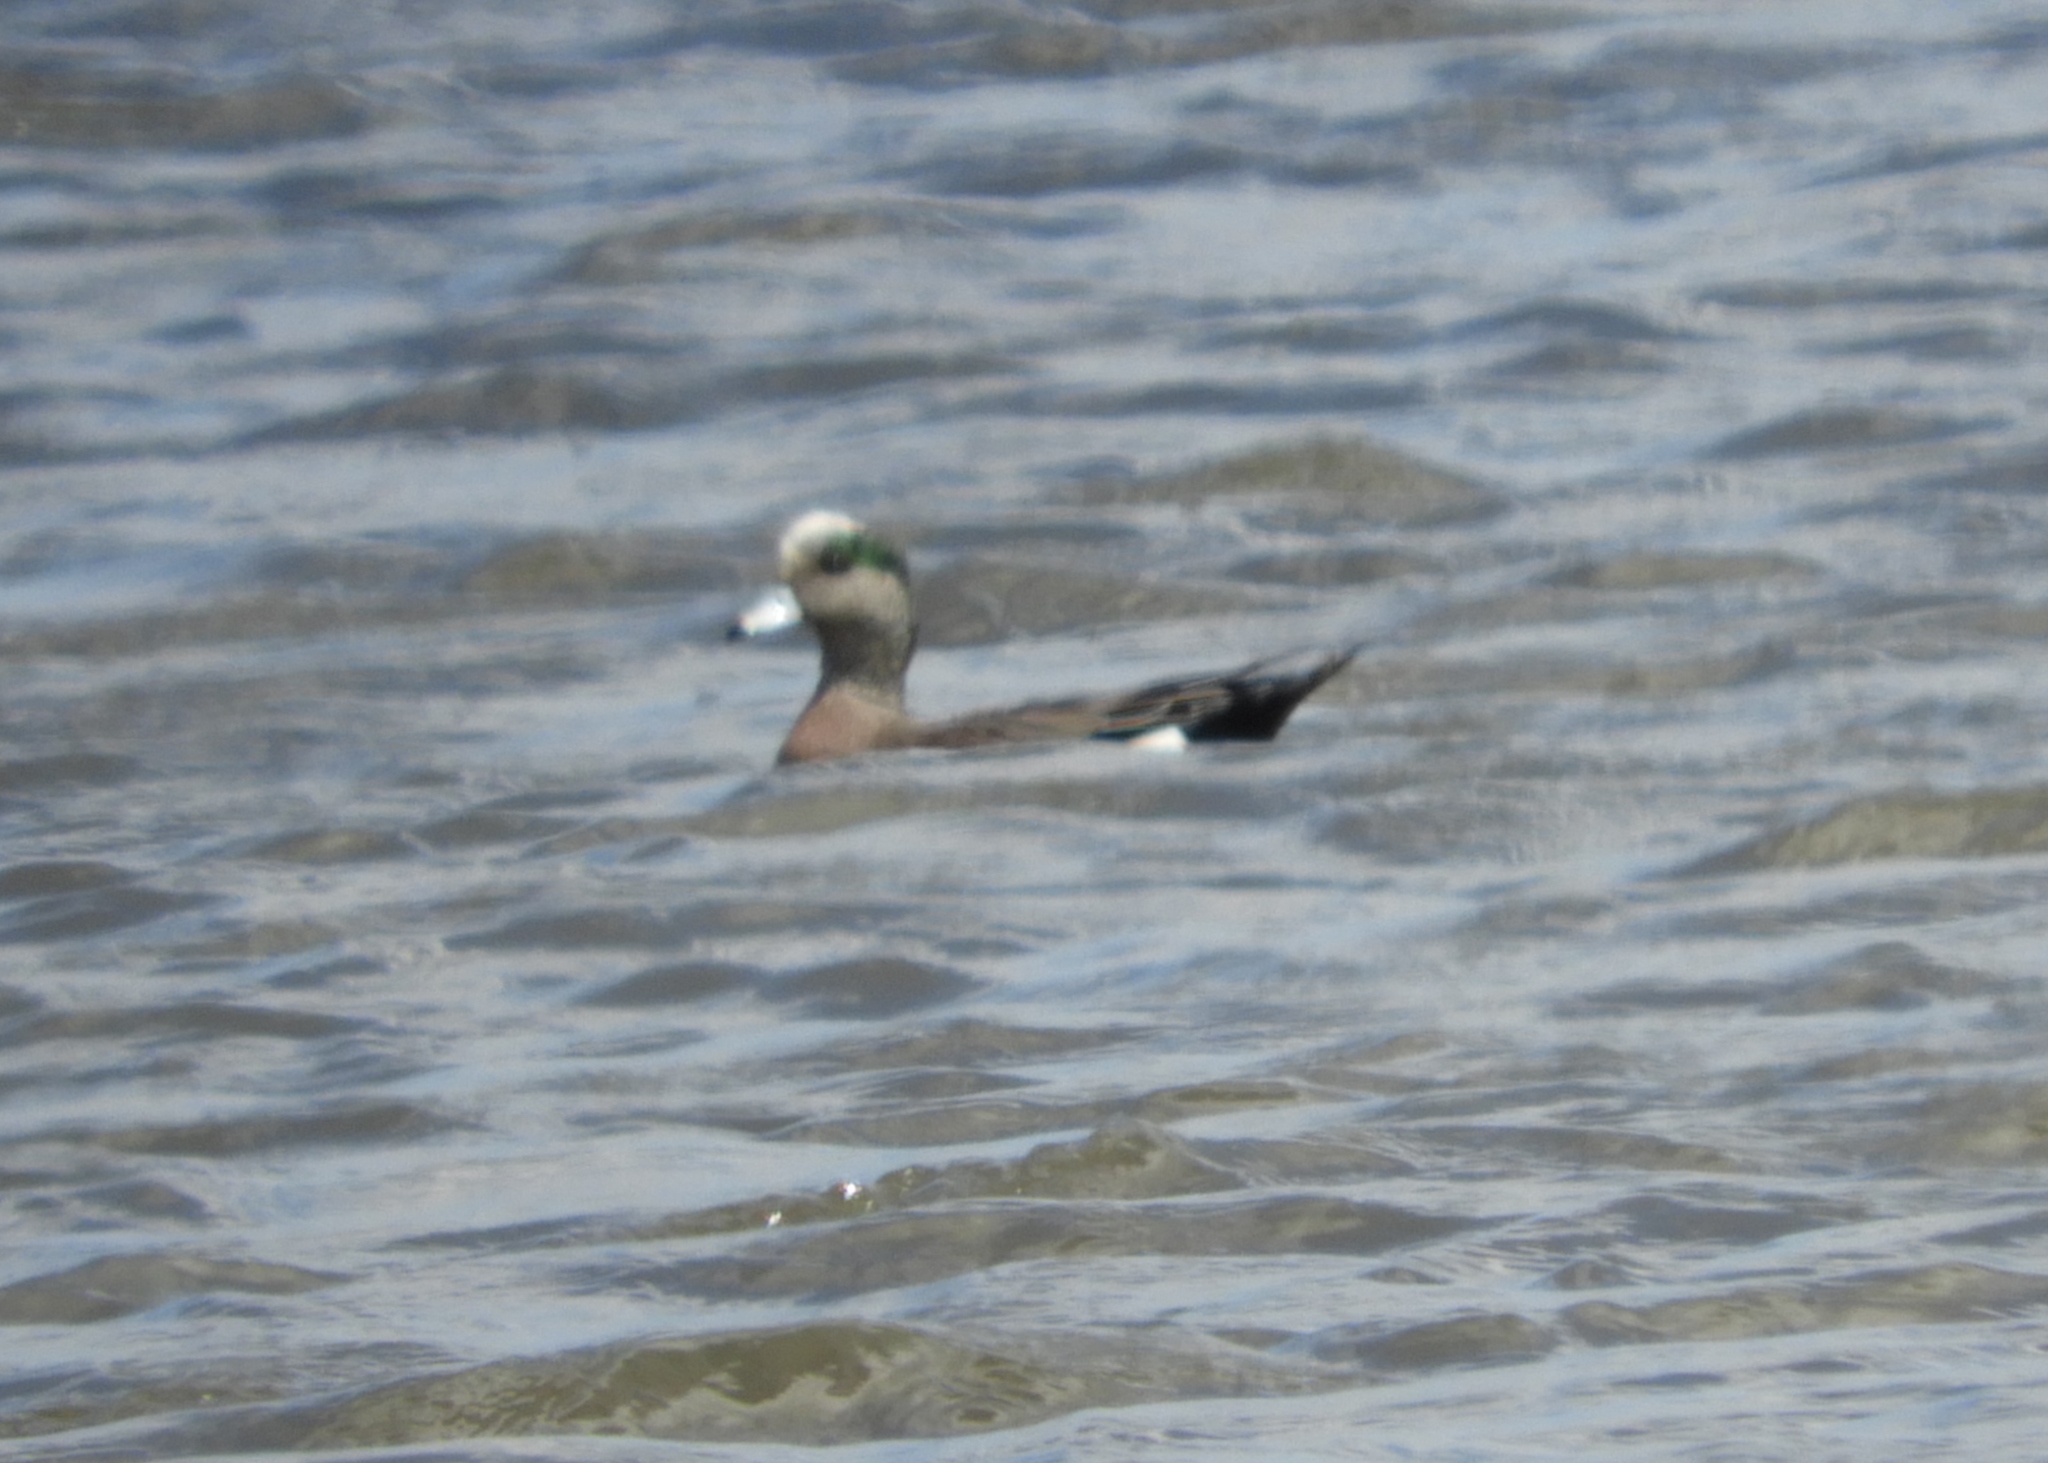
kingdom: Animalia
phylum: Chordata
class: Aves
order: Anseriformes
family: Anatidae
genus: Mareca
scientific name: Mareca americana
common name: American wigeon
